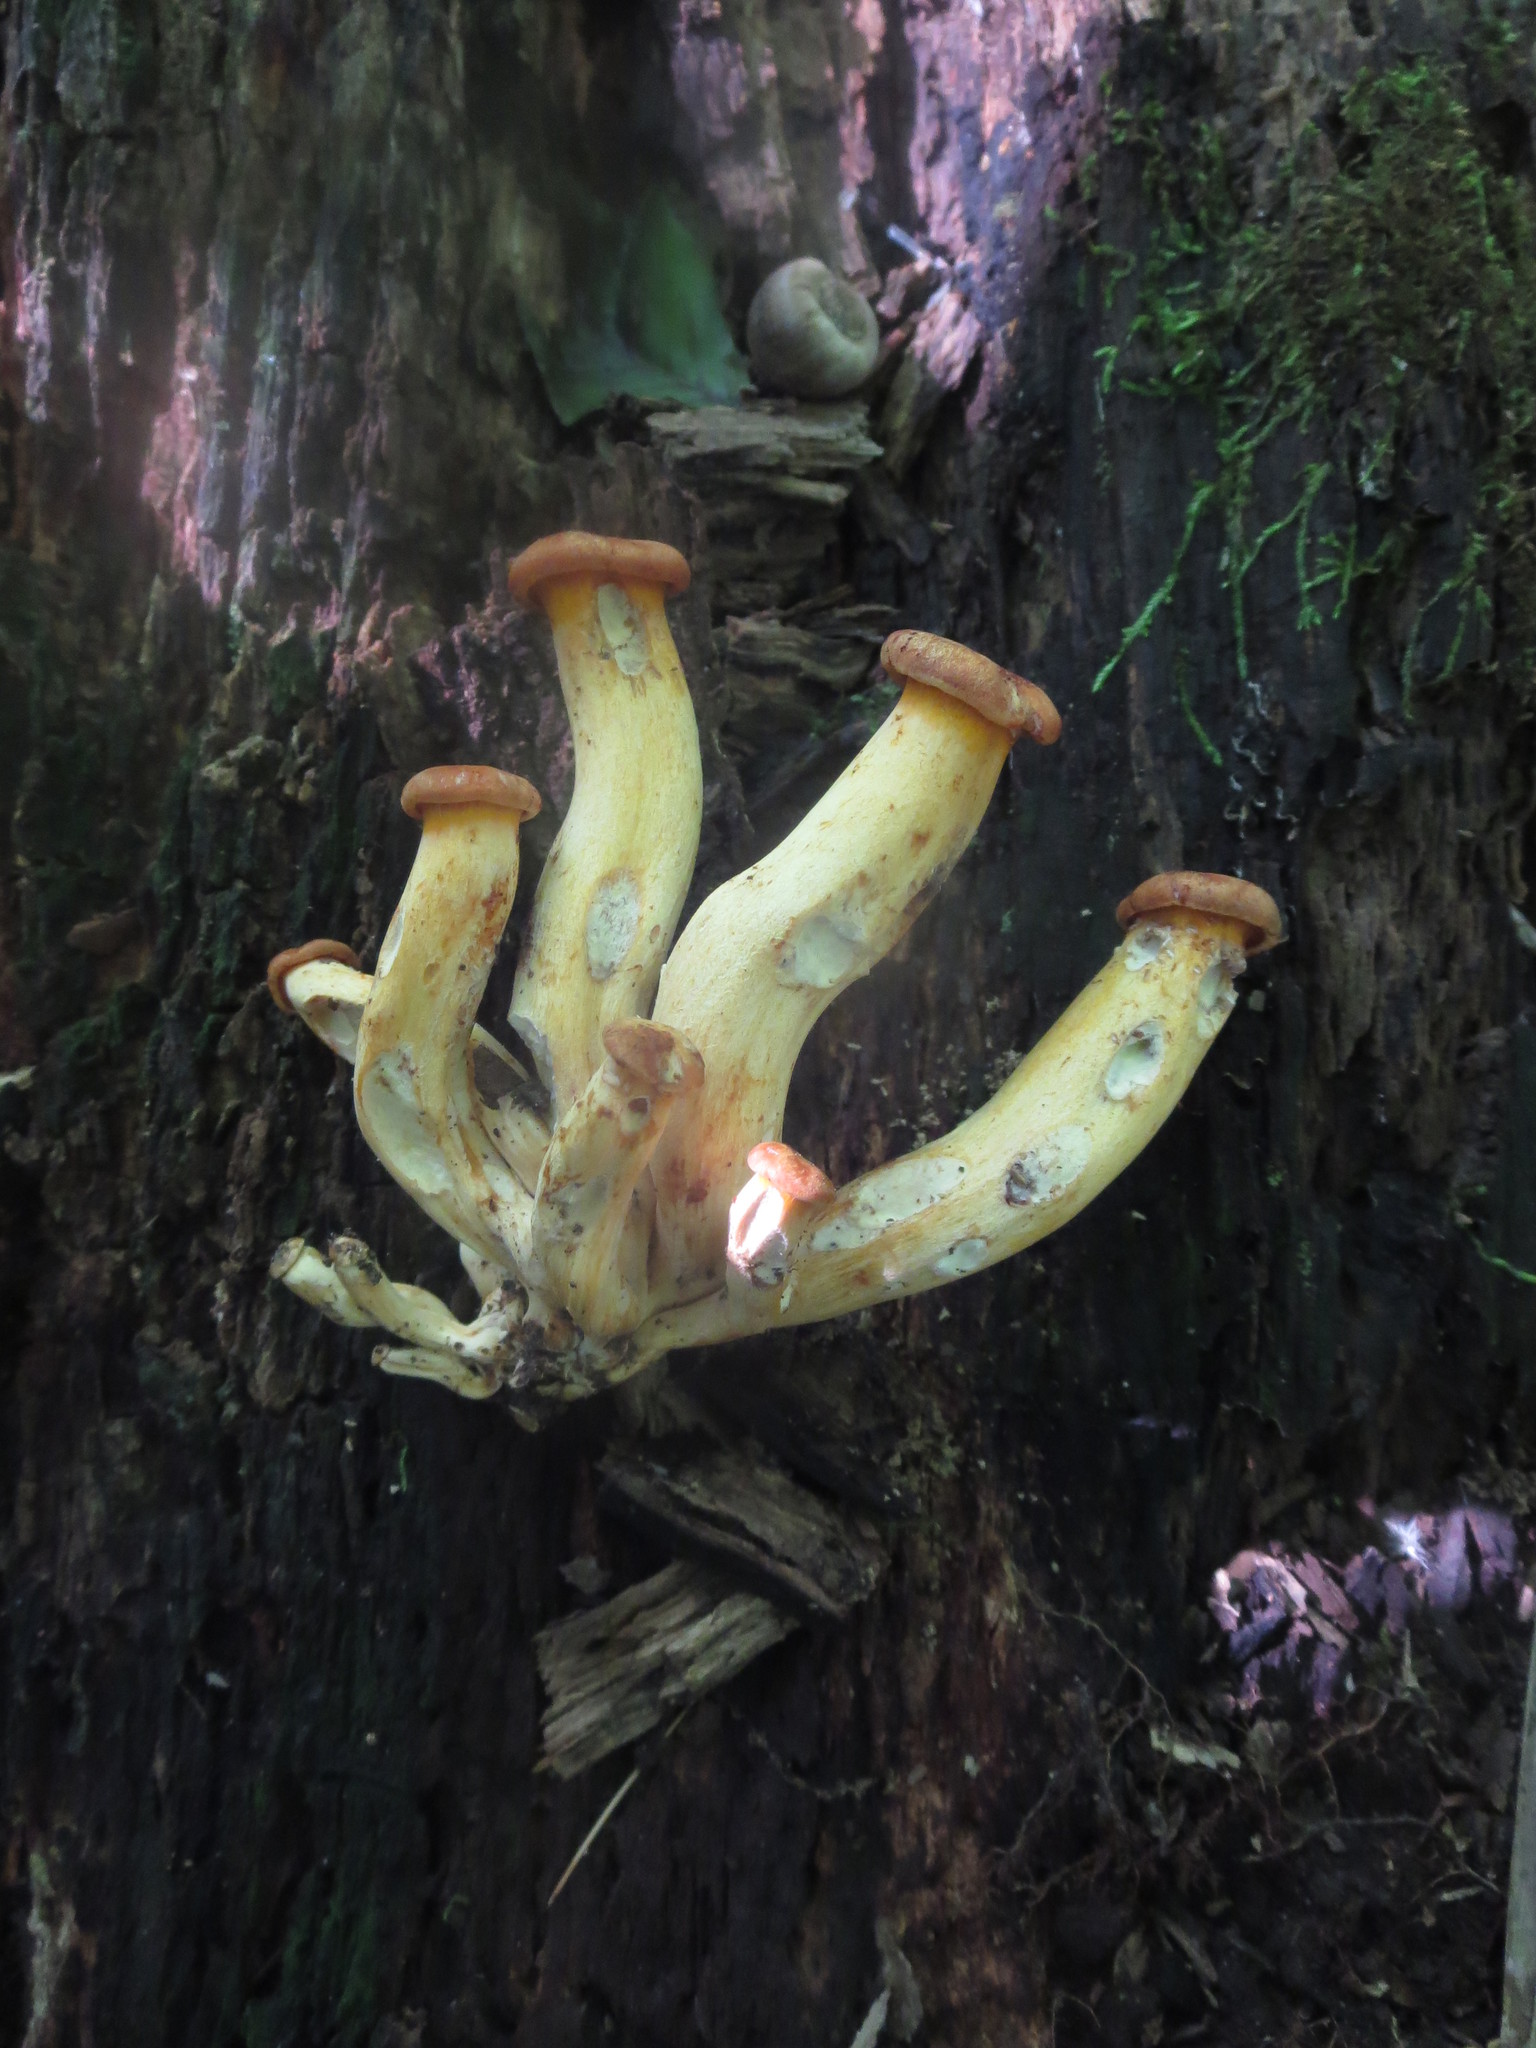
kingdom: Fungi
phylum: Basidiomycota
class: Agaricomycetes
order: Agaricales
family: Omphalotaceae
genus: Omphalotus
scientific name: Omphalotus illudens
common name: Jack o lantern
